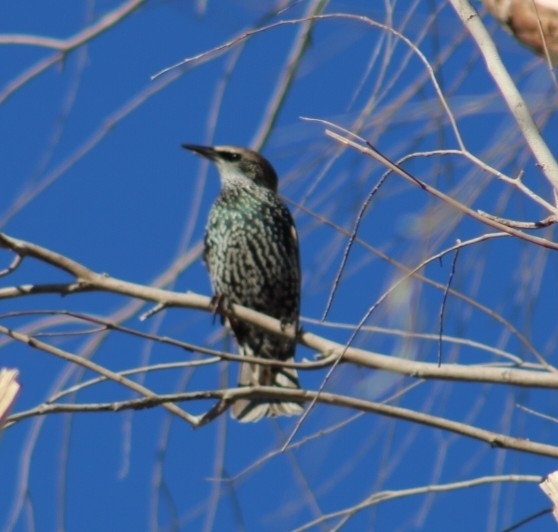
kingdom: Animalia
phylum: Chordata
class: Aves
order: Passeriformes
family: Sturnidae
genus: Sturnus
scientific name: Sturnus vulgaris
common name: Common starling
